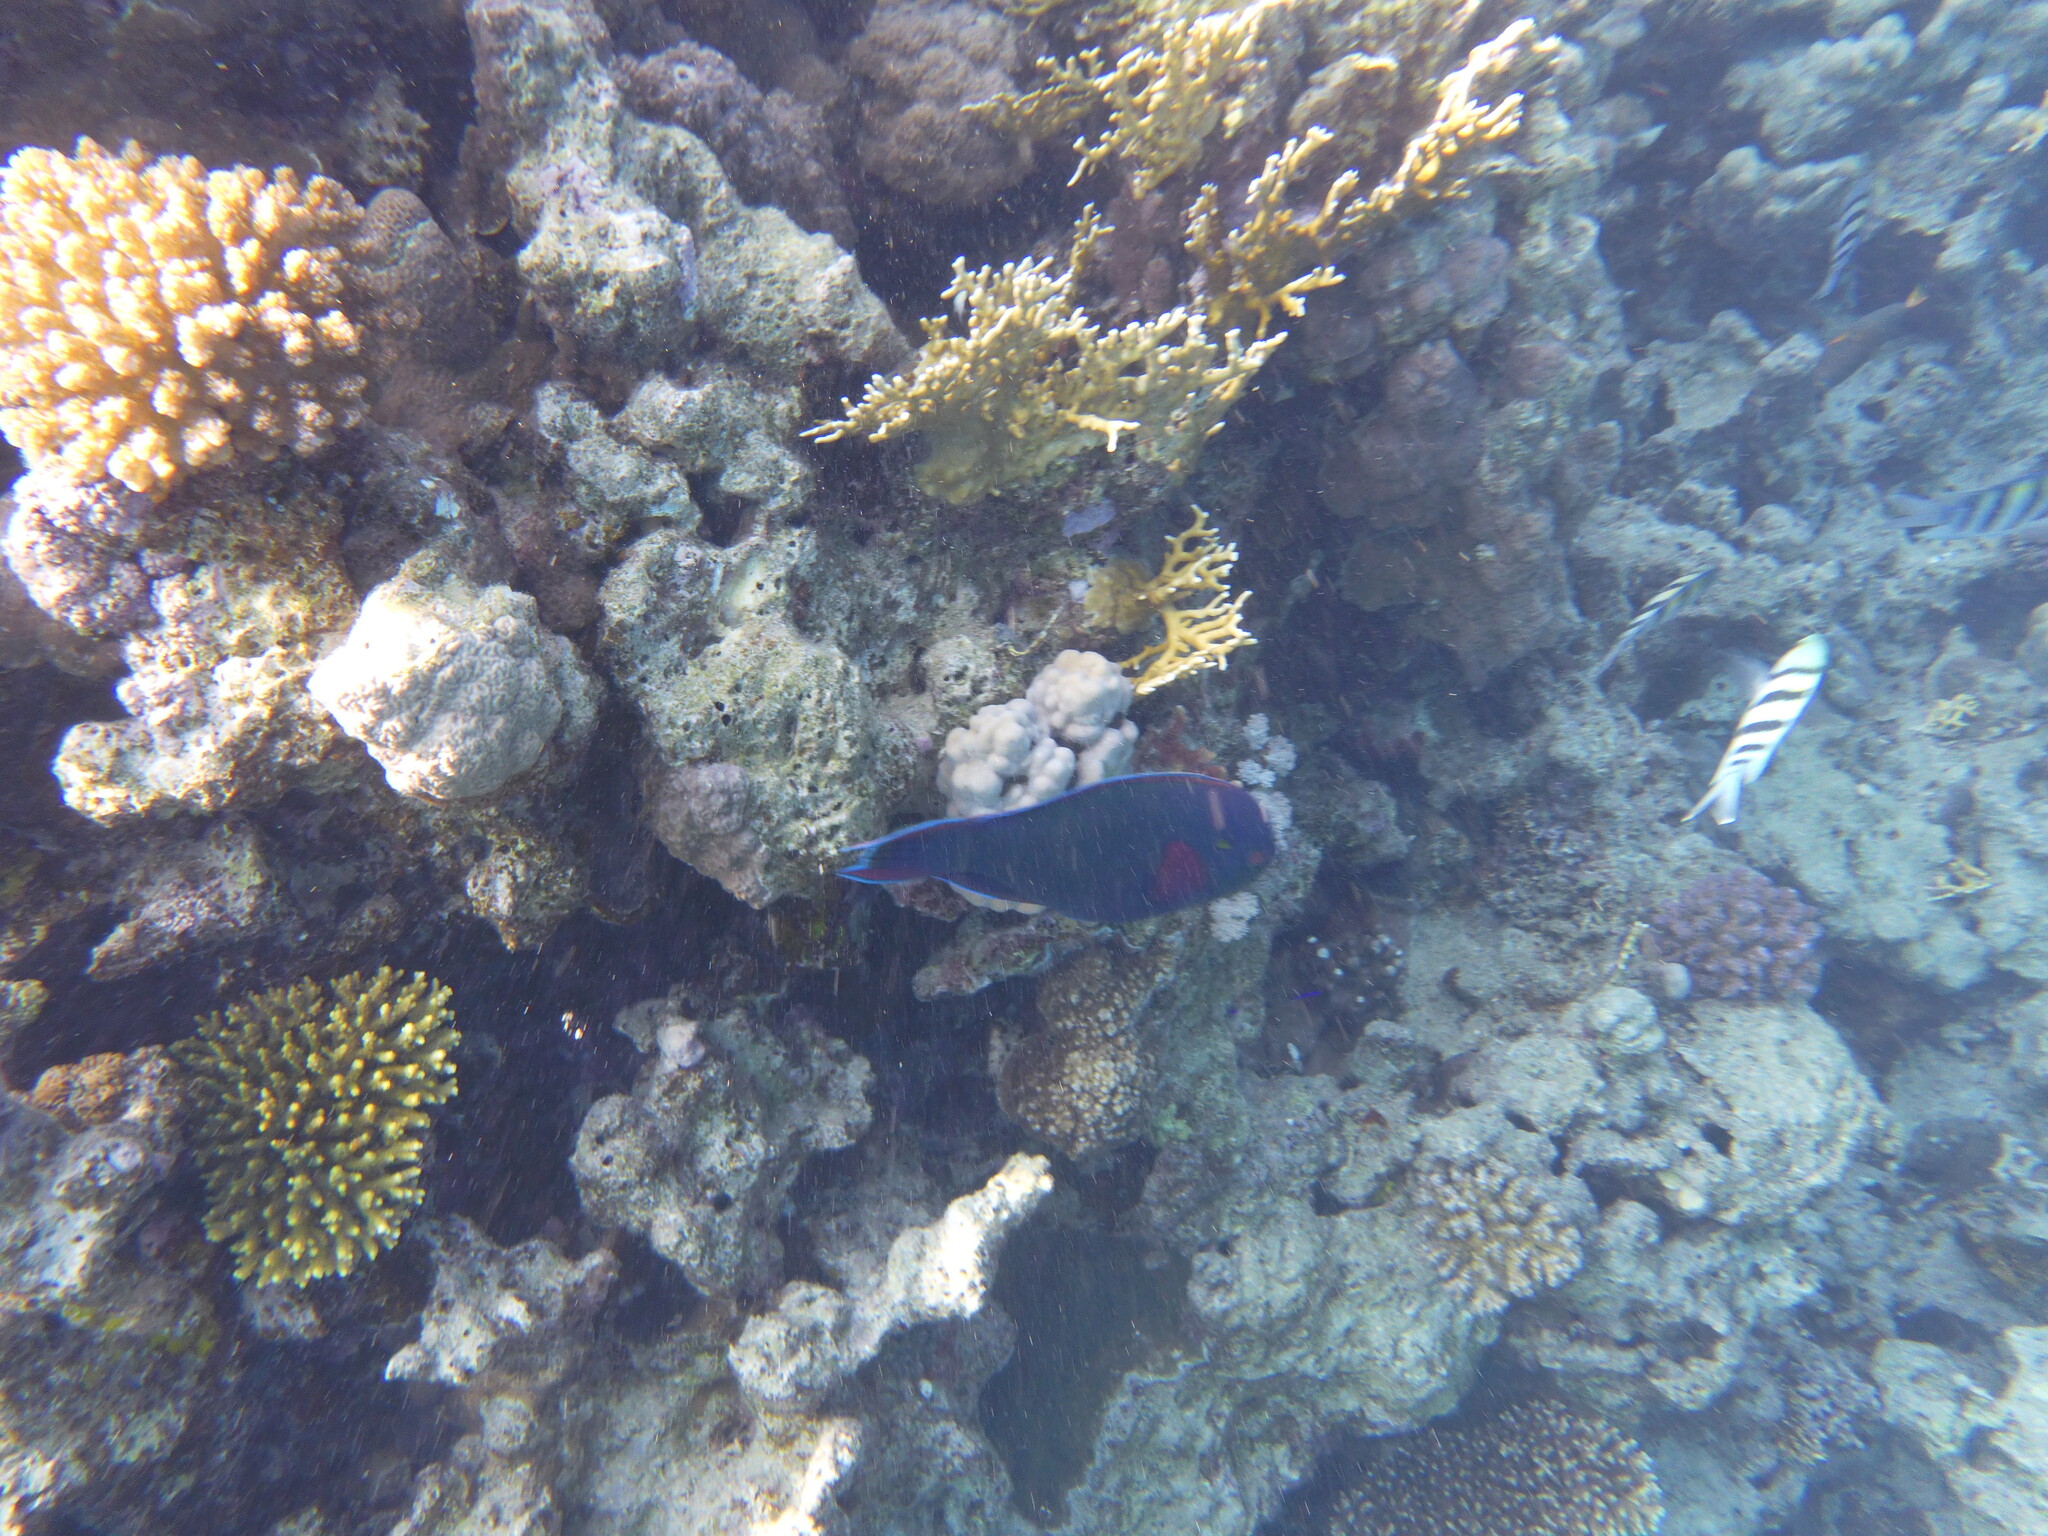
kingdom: Animalia
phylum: Chordata
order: Perciformes
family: Scaridae
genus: Scarus
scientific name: Scarus niger
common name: Dusky parrotfish
